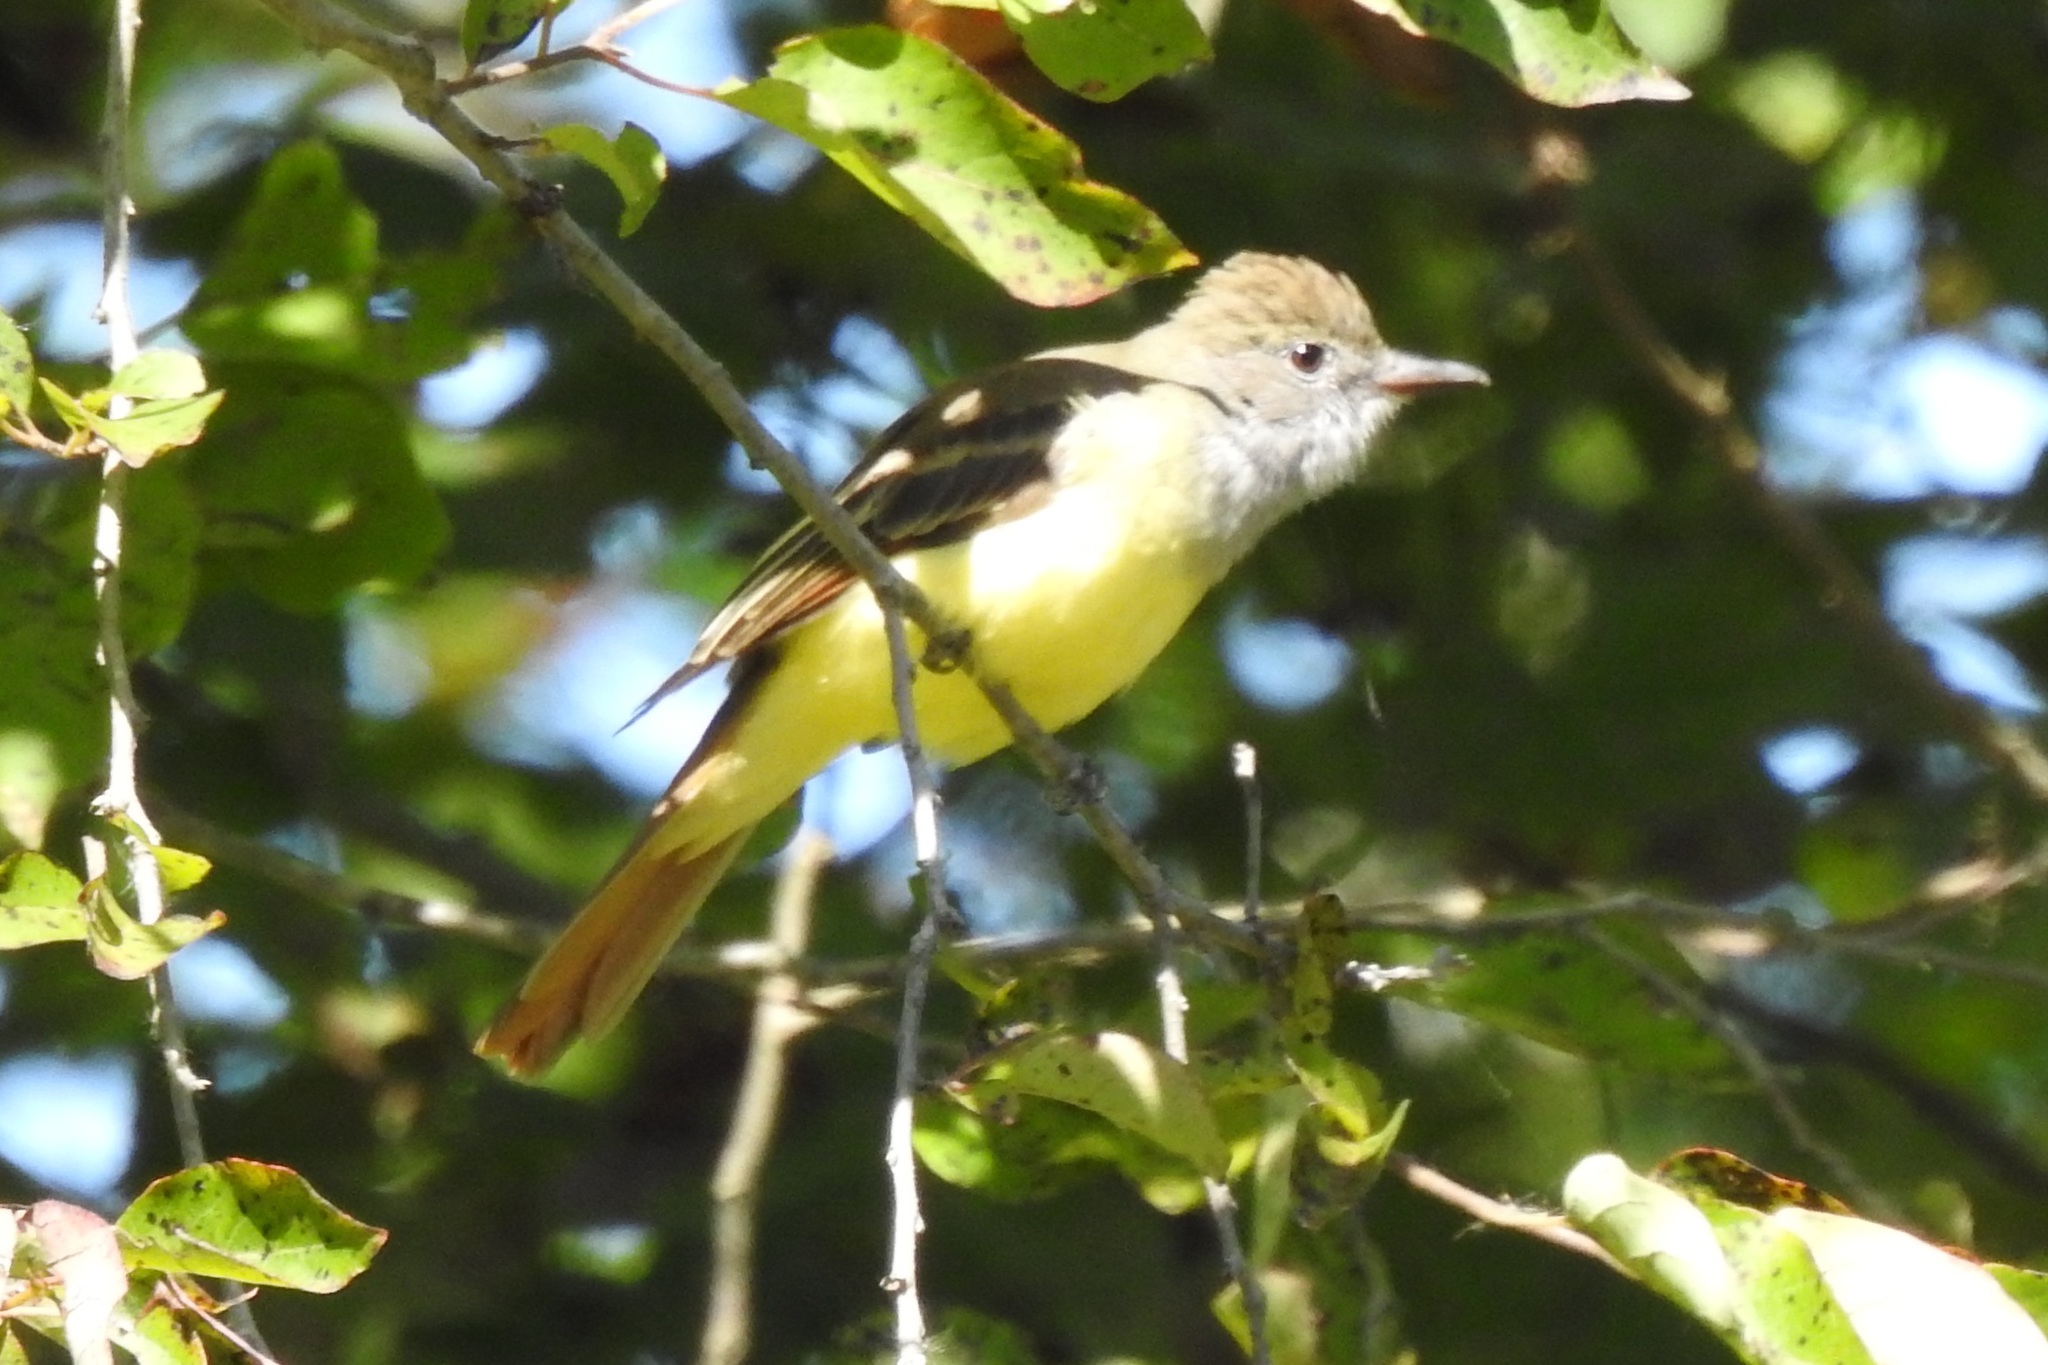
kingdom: Animalia
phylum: Chordata
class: Aves
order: Passeriformes
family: Tyrannidae
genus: Myiarchus
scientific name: Myiarchus crinitus
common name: Great crested flycatcher
